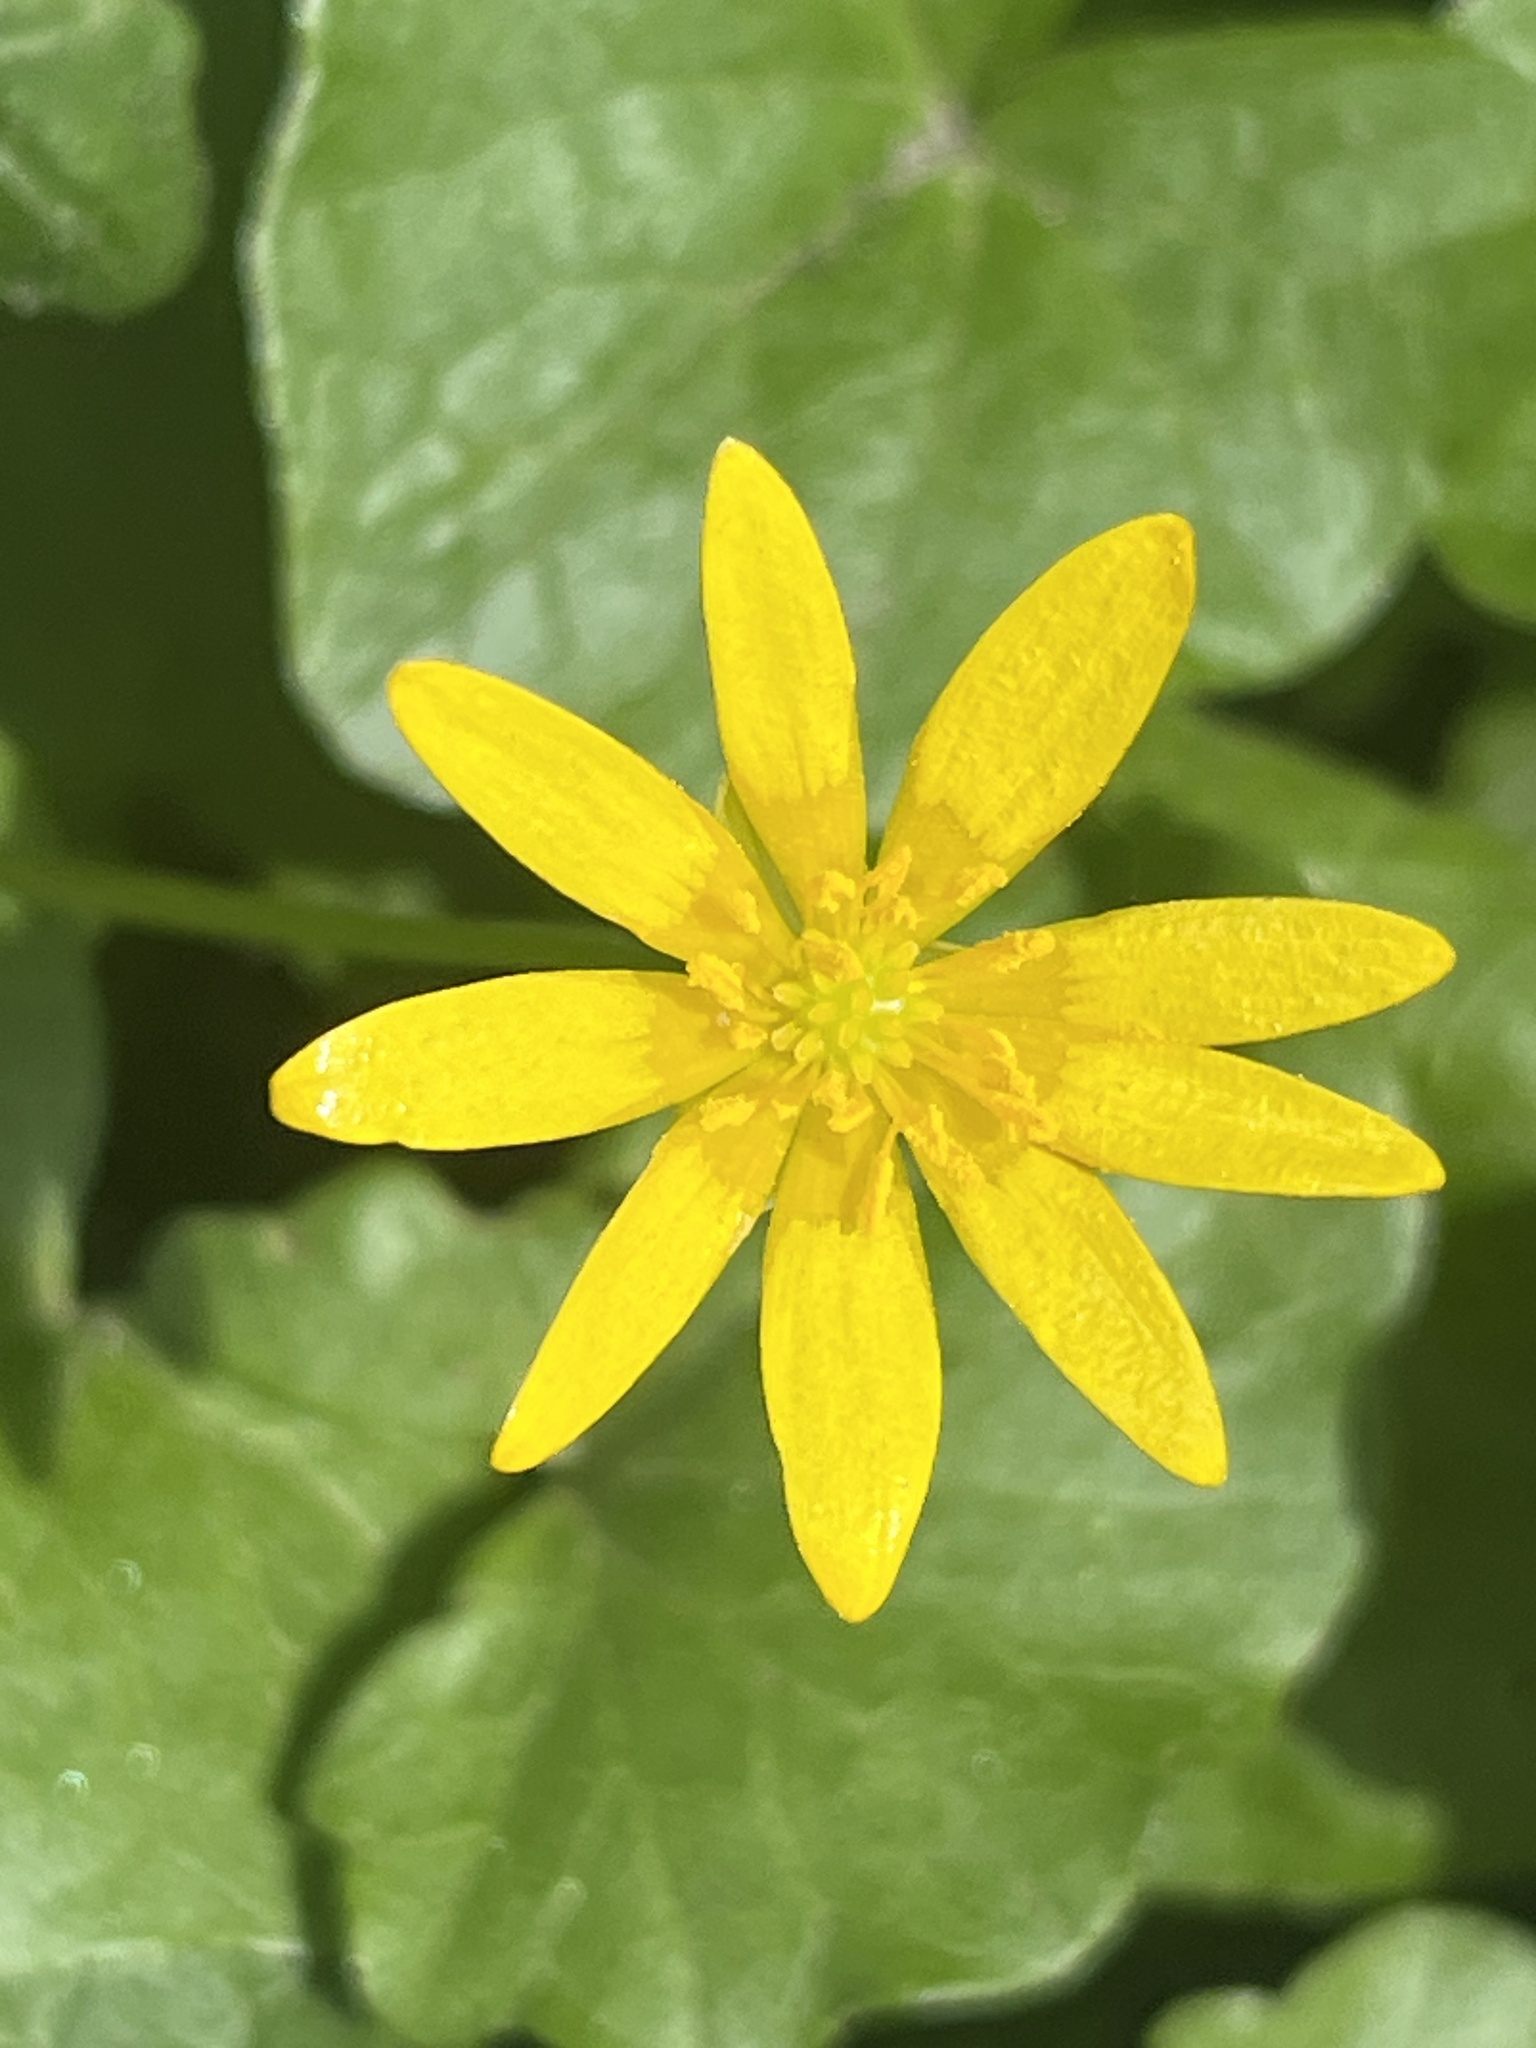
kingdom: Plantae
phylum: Tracheophyta
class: Magnoliopsida
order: Ranunculales
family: Ranunculaceae
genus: Ficaria
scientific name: Ficaria verna
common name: Lesser celandine
